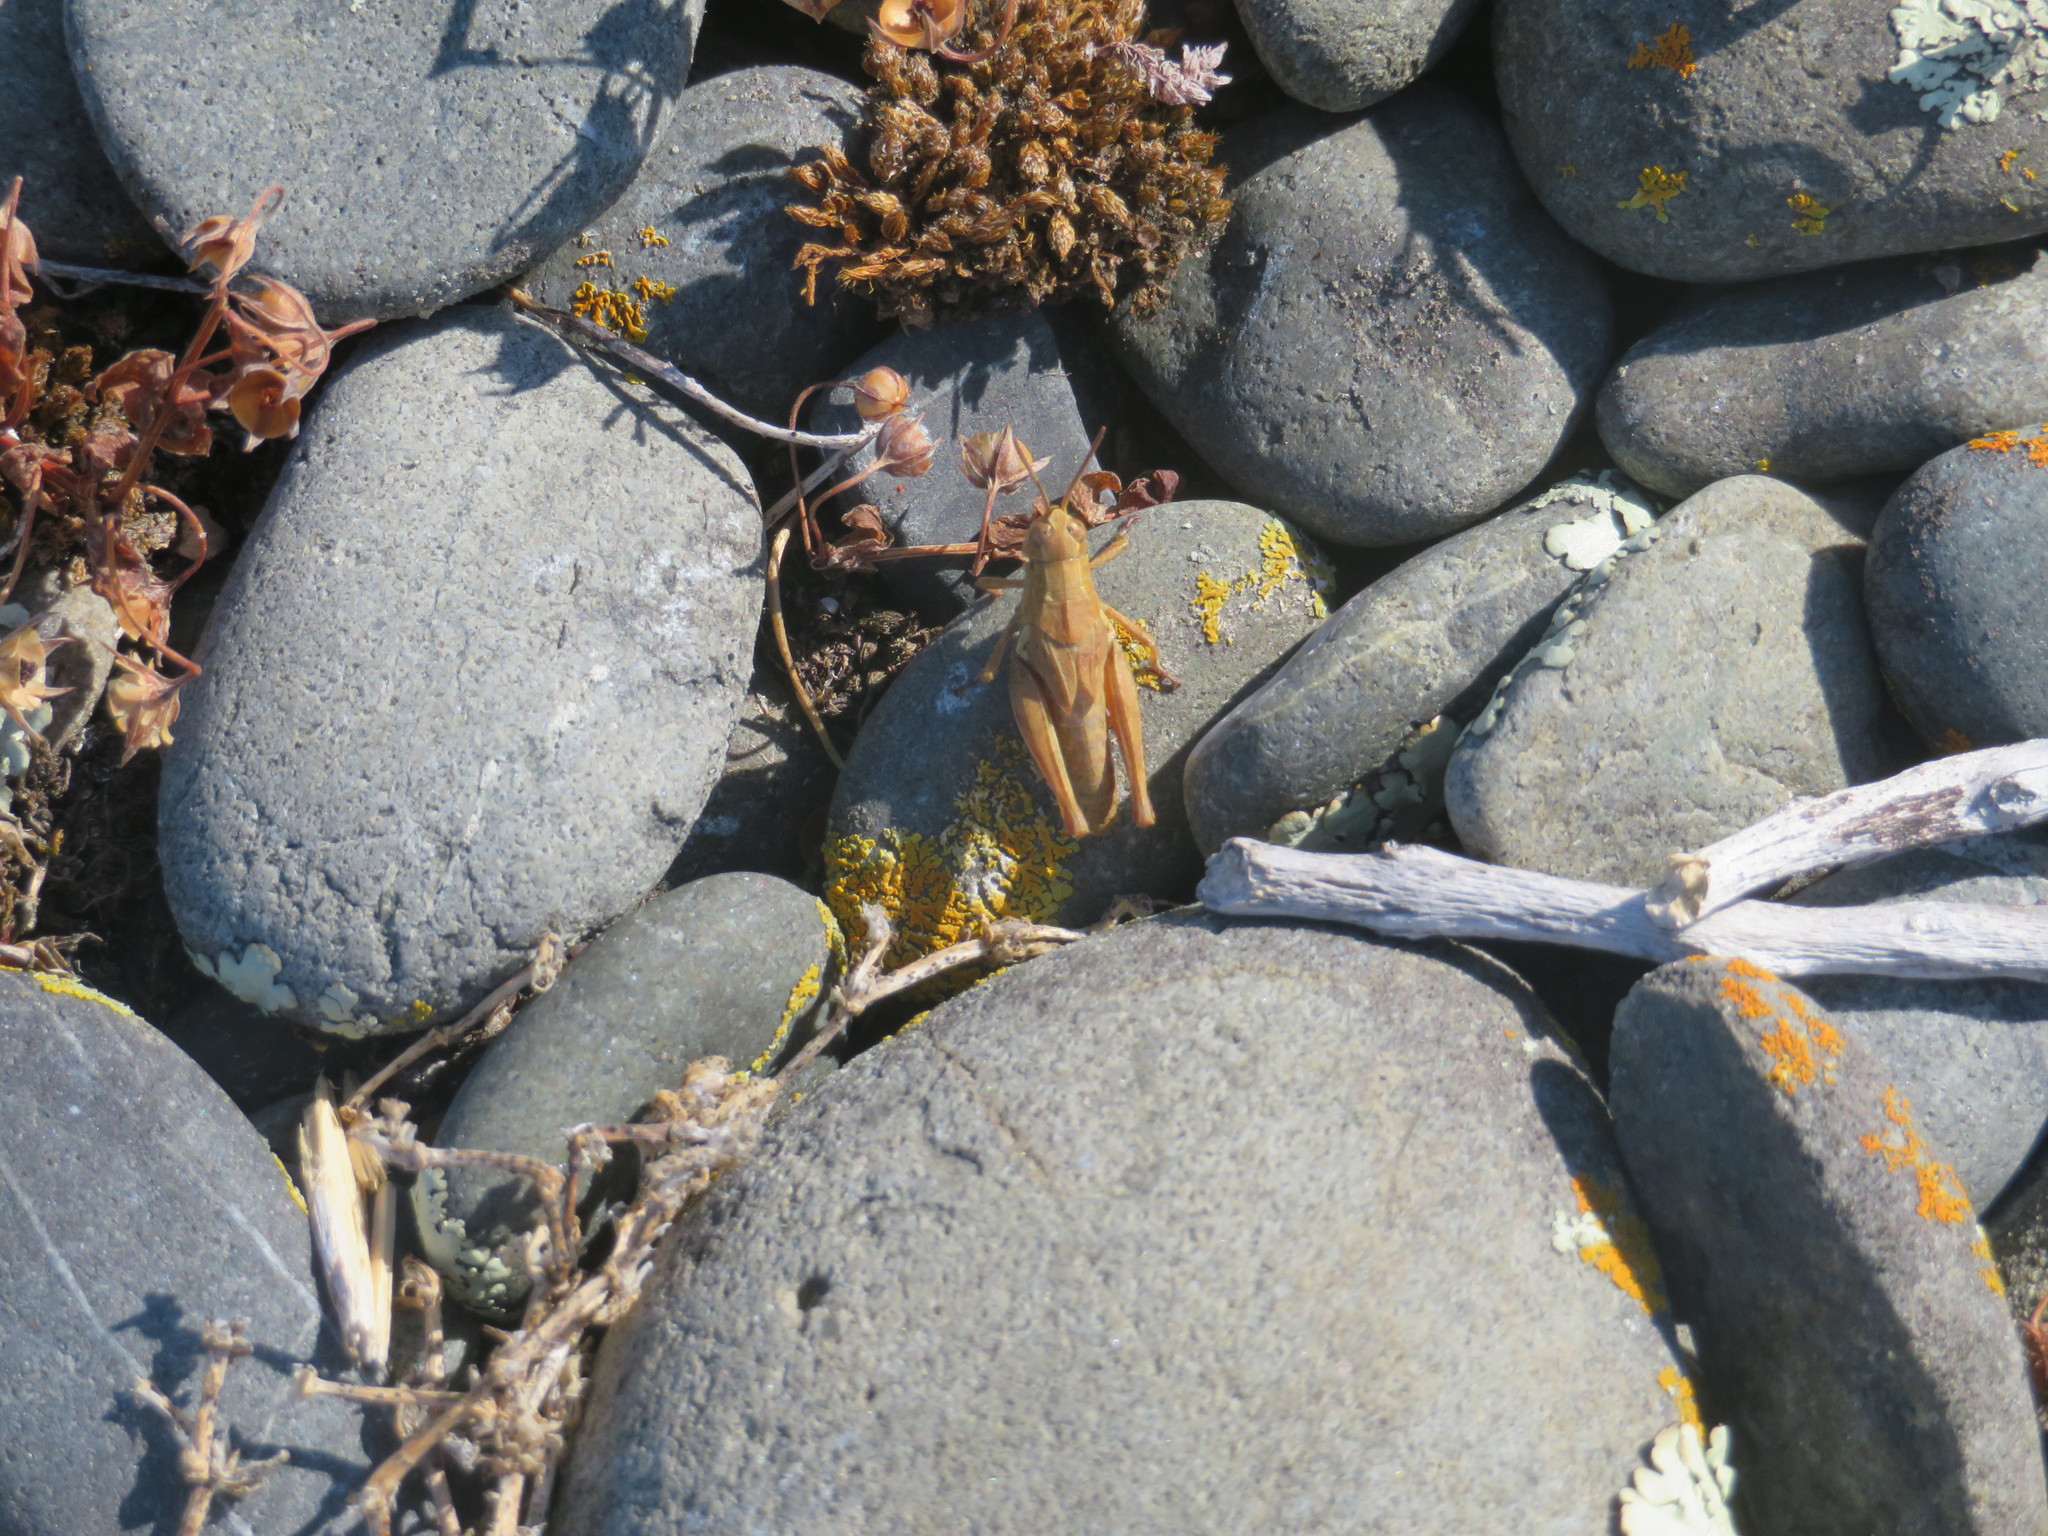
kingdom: Animalia
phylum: Arthropoda
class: Insecta
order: Orthoptera
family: Acrididae
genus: Phaulacridium
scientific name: Phaulacridium marginale
